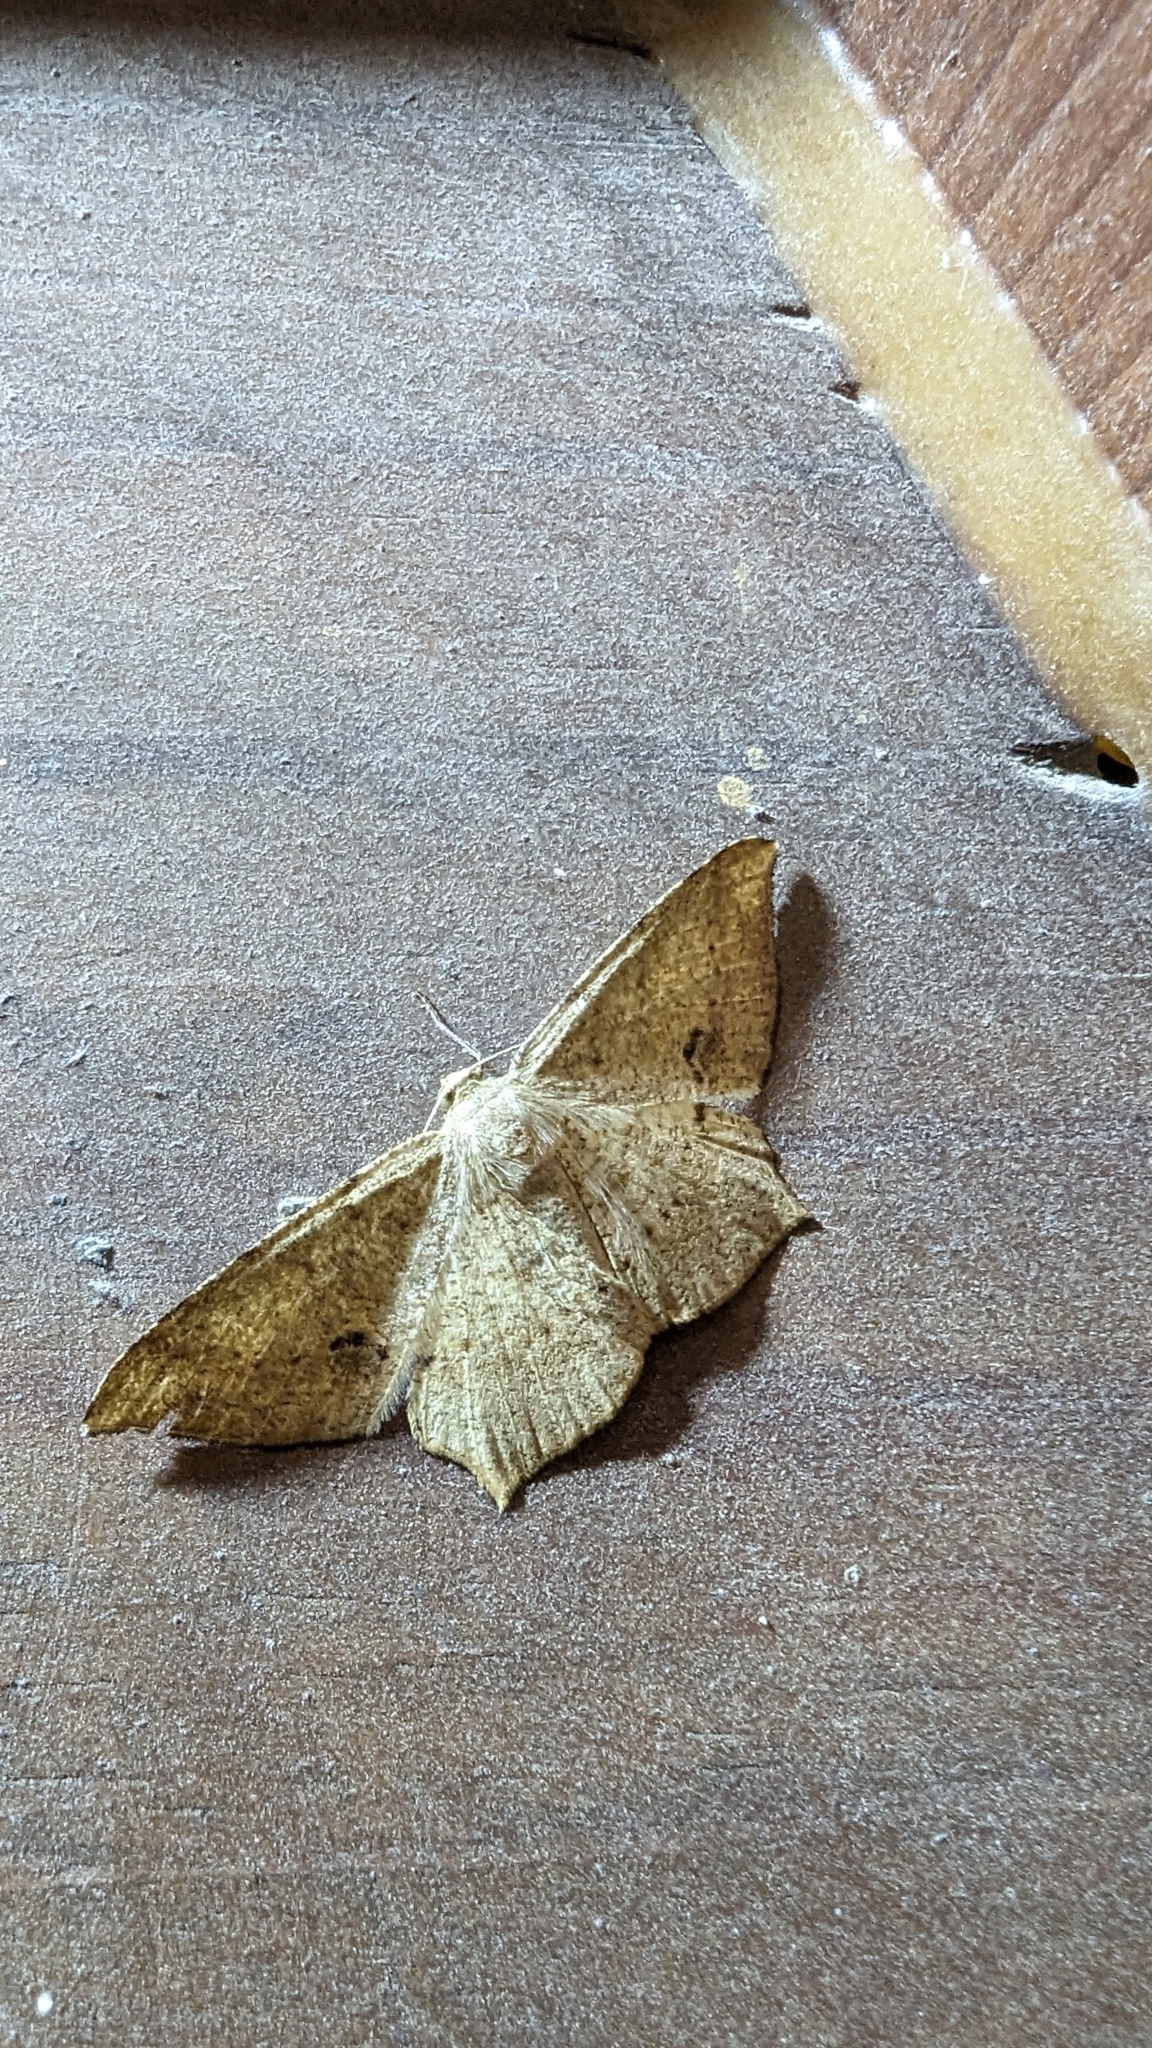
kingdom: Animalia
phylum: Arthropoda
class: Insecta
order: Lepidoptera
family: Geometridae
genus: Krananda
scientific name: Krananda falcata
